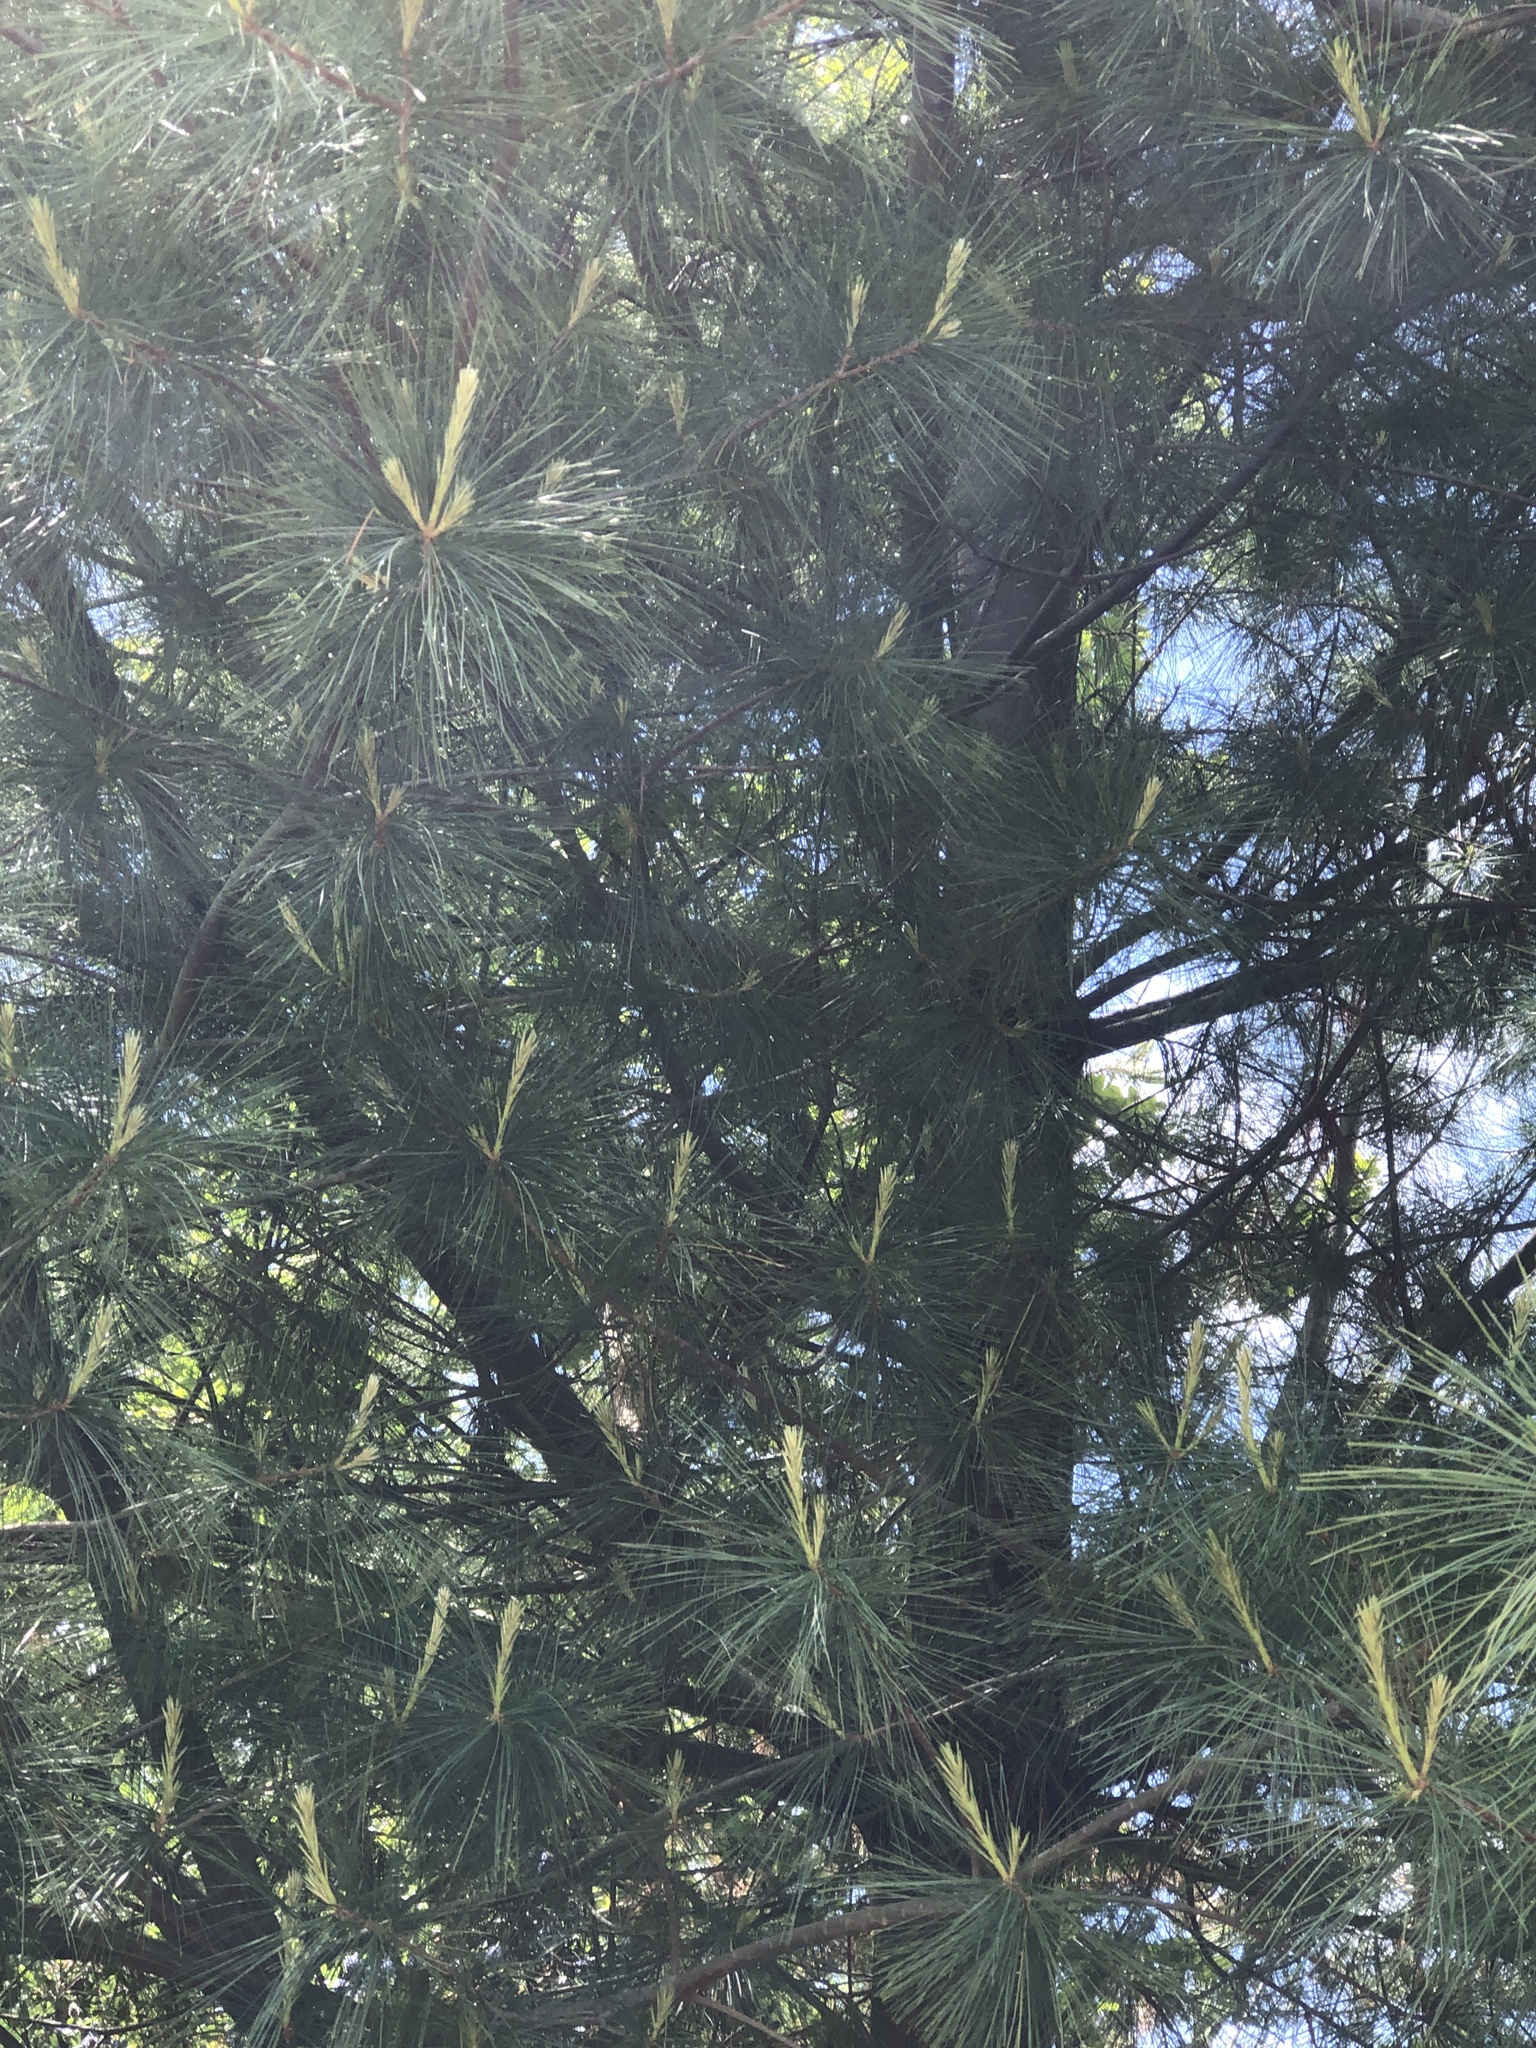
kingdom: Plantae
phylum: Tracheophyta
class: Pinopsida
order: Pinales
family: Pinaceae
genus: Pinus
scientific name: Pinus monticola
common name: Western white pine
